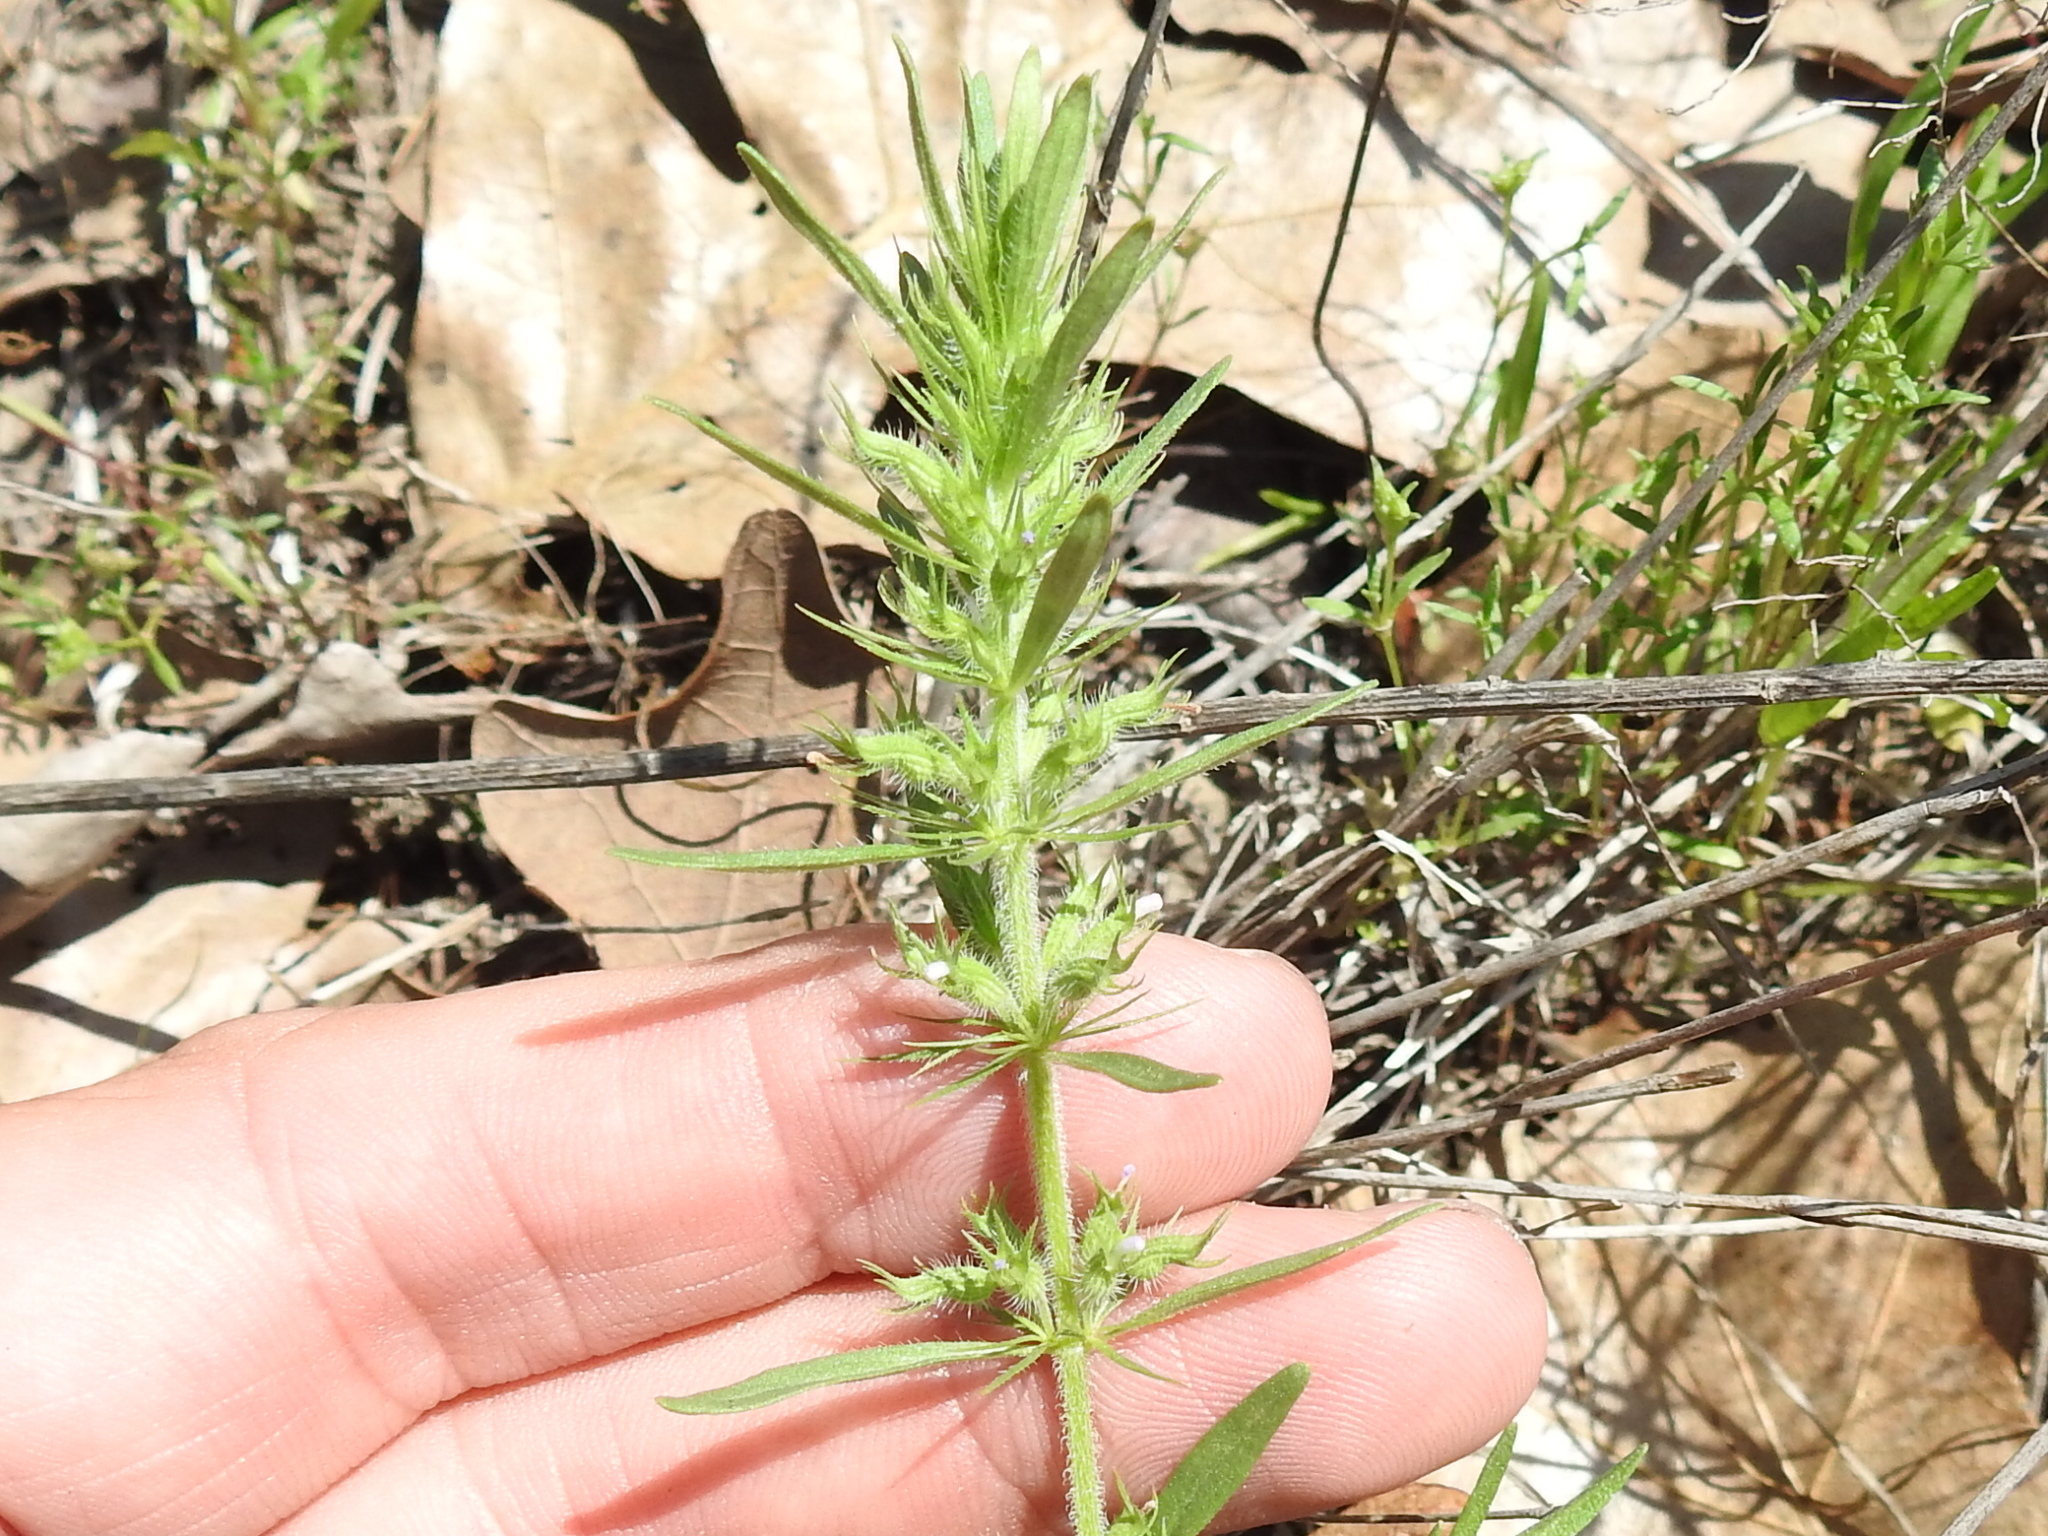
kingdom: Plantae
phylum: Tracheophyta
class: Magnoliopsida
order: Lamiales
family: Lamiaceae
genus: Hedeoma
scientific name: Hedeoma hispida
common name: Mock pennyroyal
